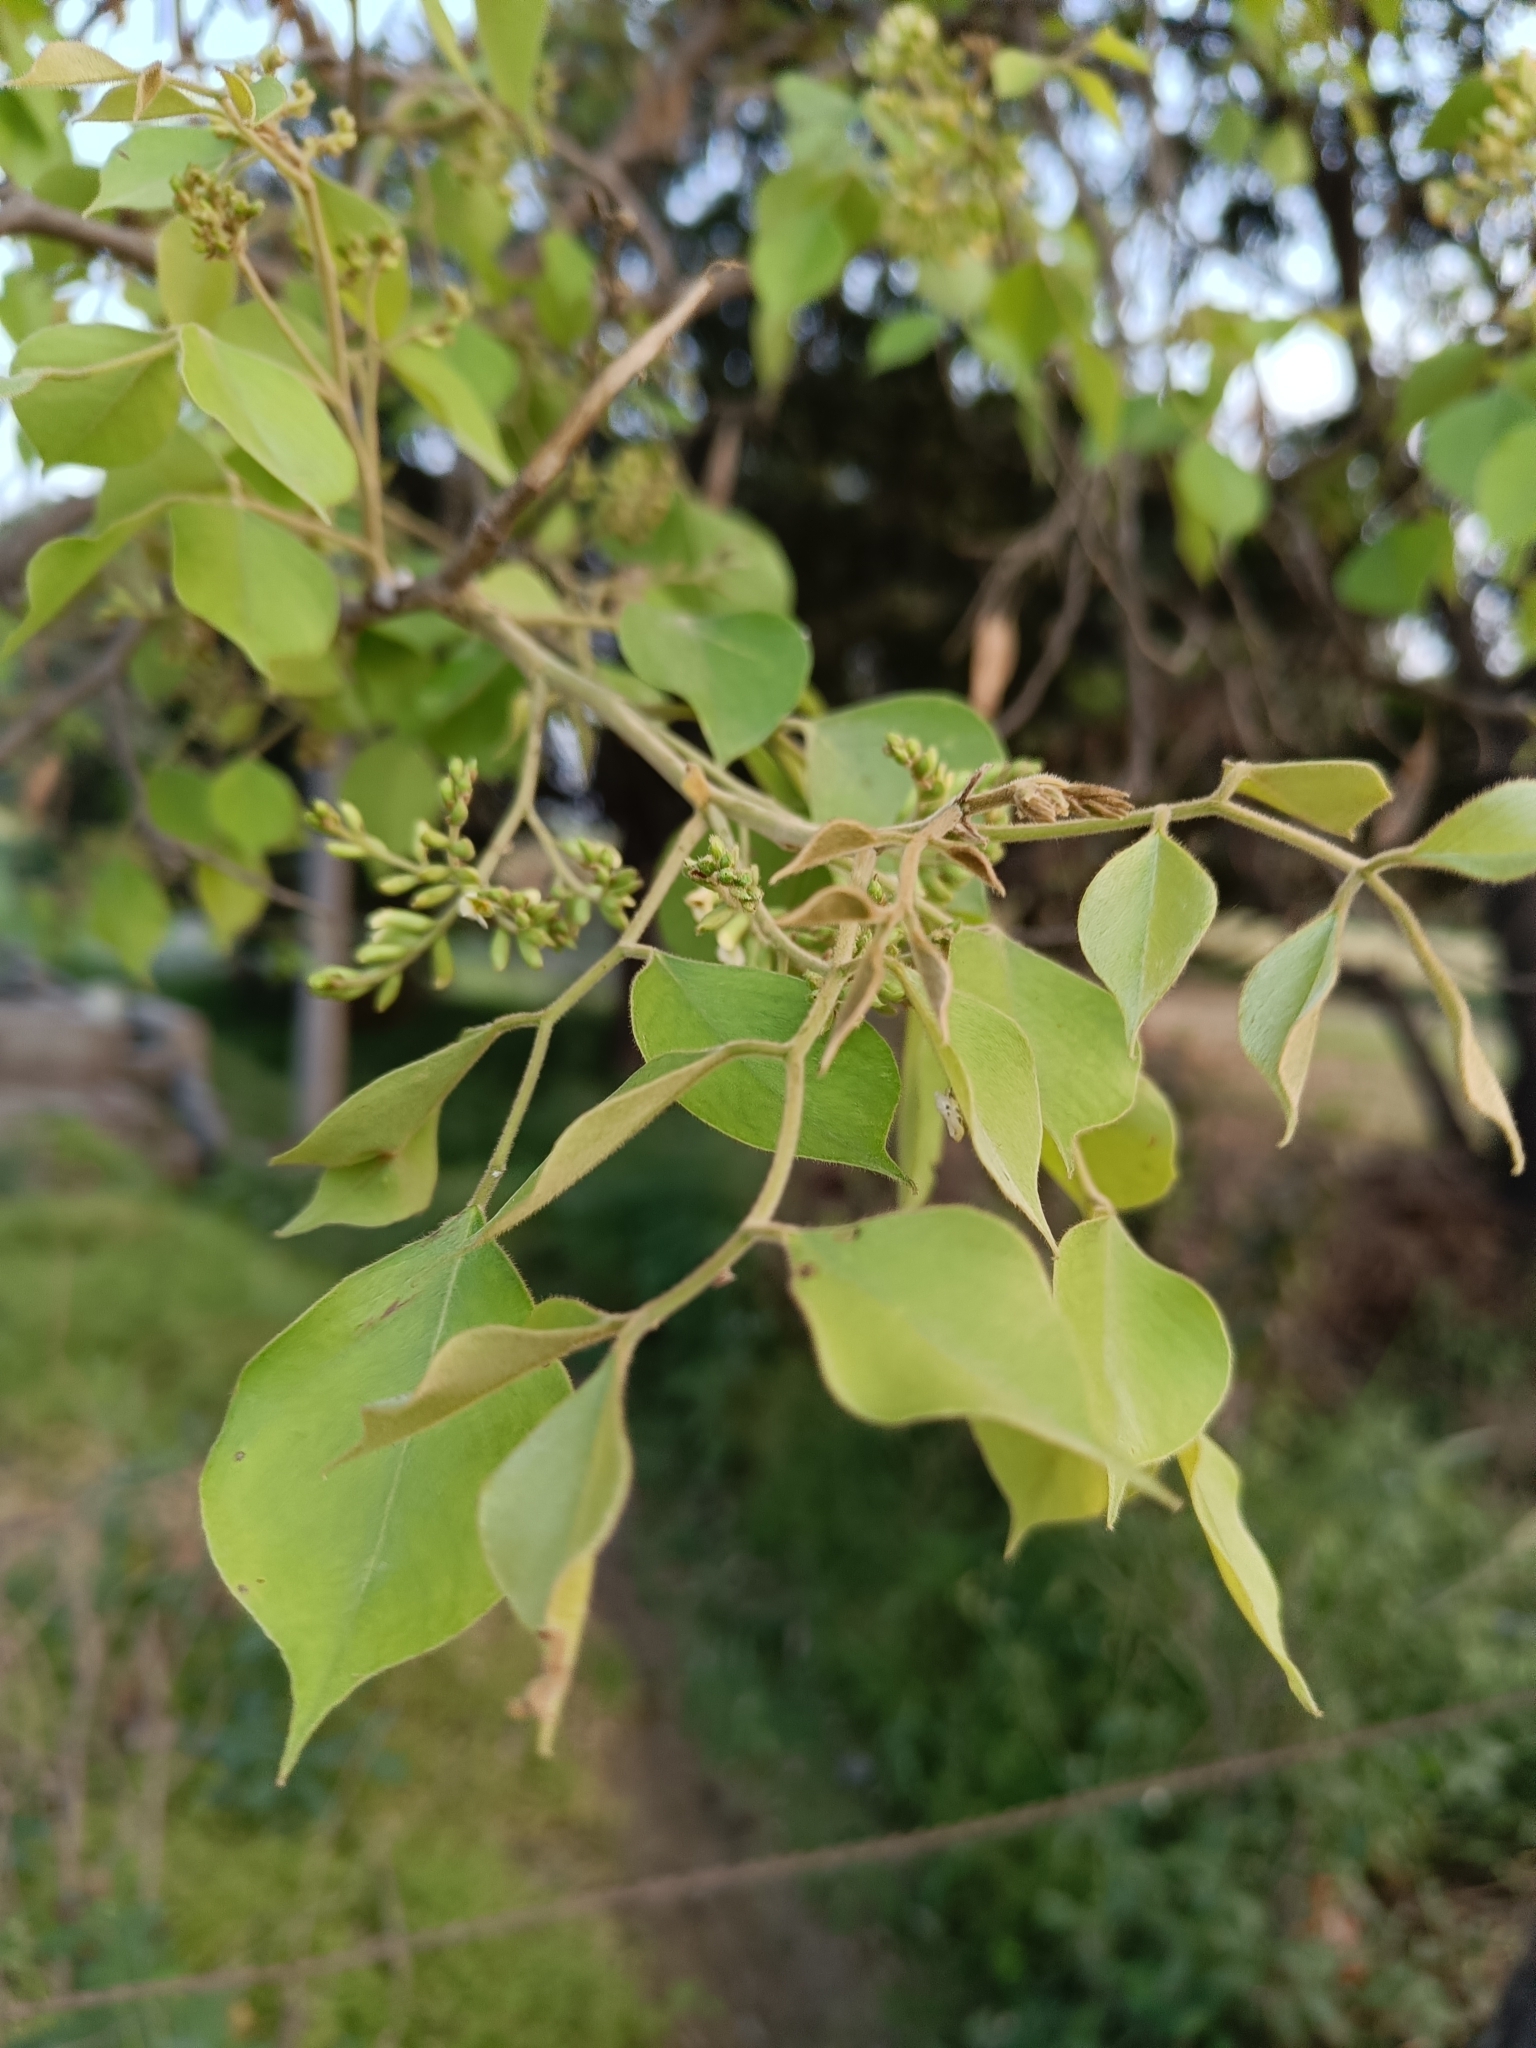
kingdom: Plantae
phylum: Tracheophyta
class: Magnoliopsida
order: Fabales
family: Fabaceae
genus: Dalbergia
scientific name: Dalbergia sissoo
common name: Indian rosewood
